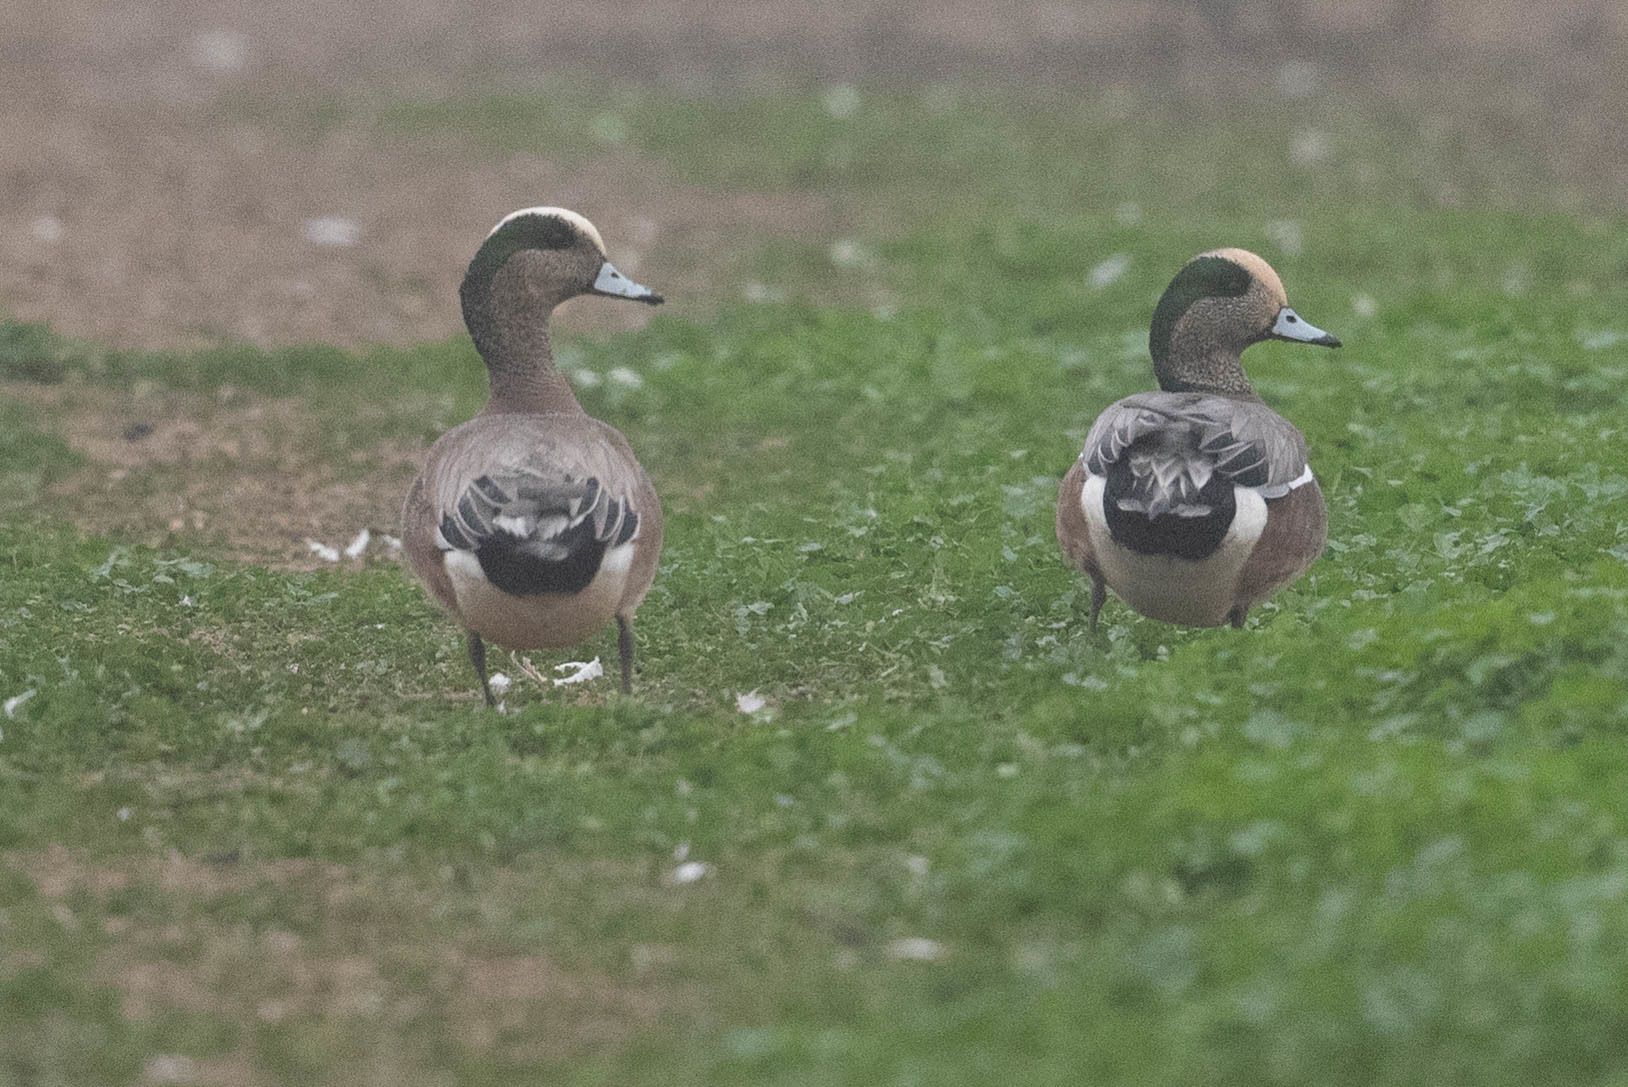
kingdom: Animalia
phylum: Chordata
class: Aves
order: Anseriformes
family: Anatidae
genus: Mareca
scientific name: Mareca americana
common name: American wigeon
